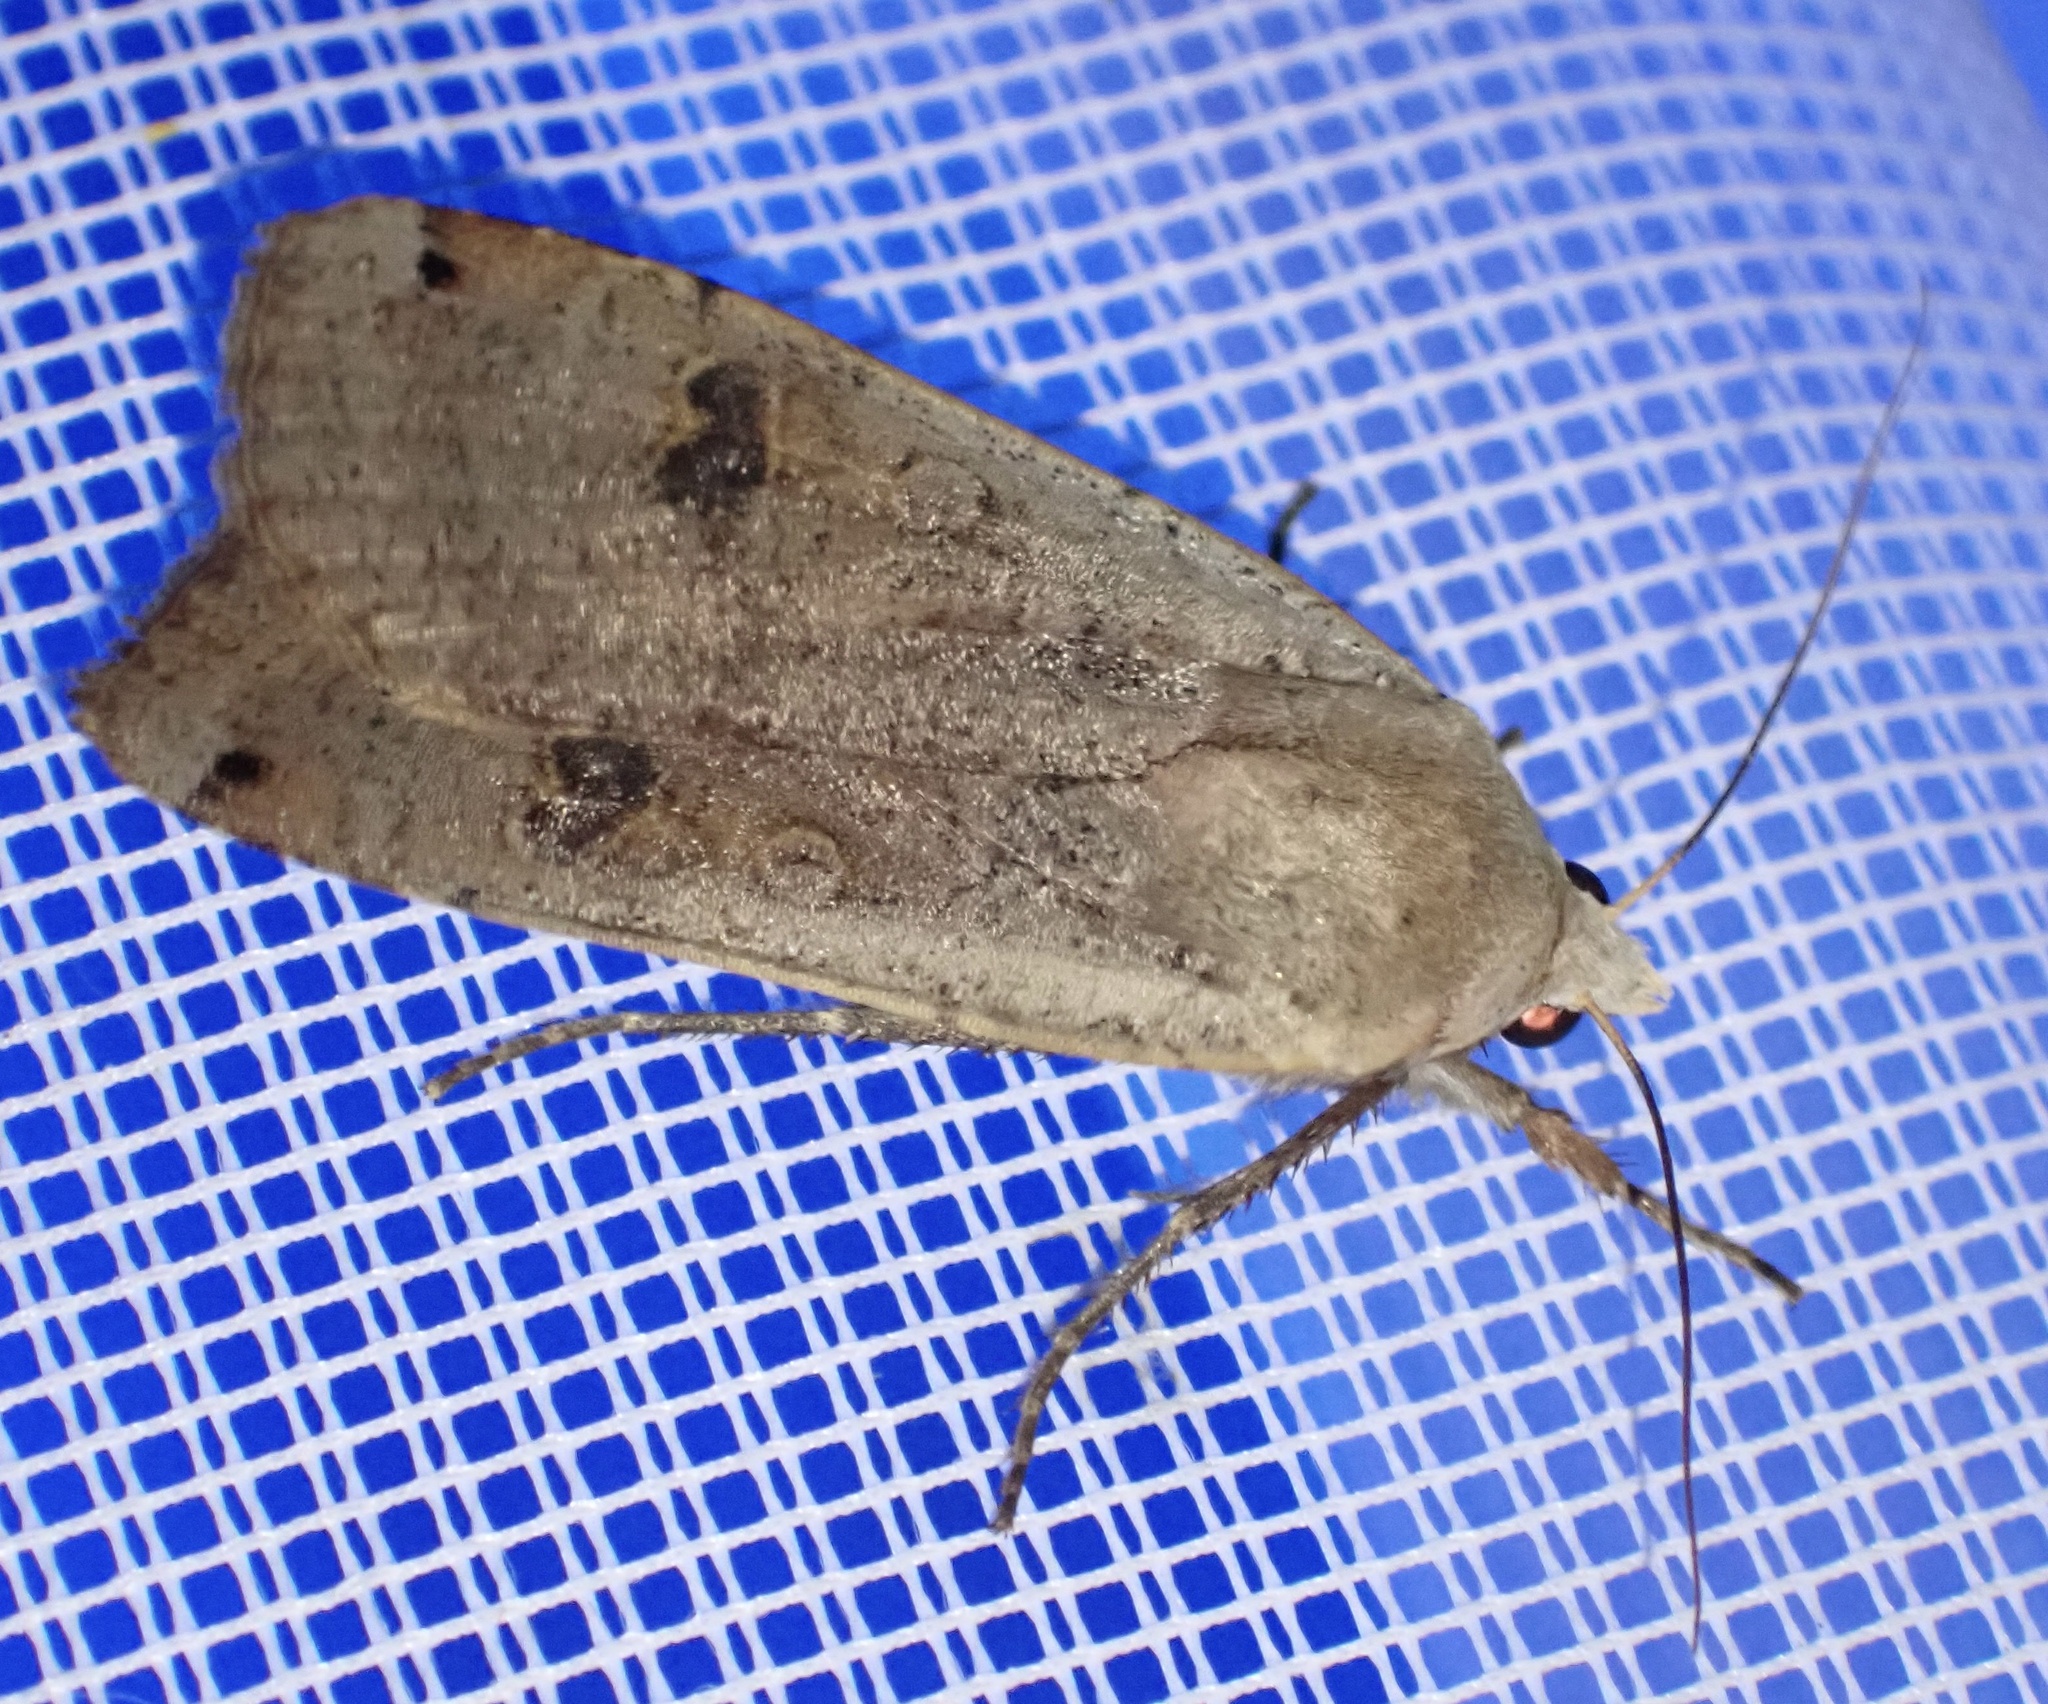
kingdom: Animalia
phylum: Arthropoda
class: Insecta
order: Lepidoptera
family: Noctuidae
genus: Noctua
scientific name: Noctua pronuba
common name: Large yellow underwing
